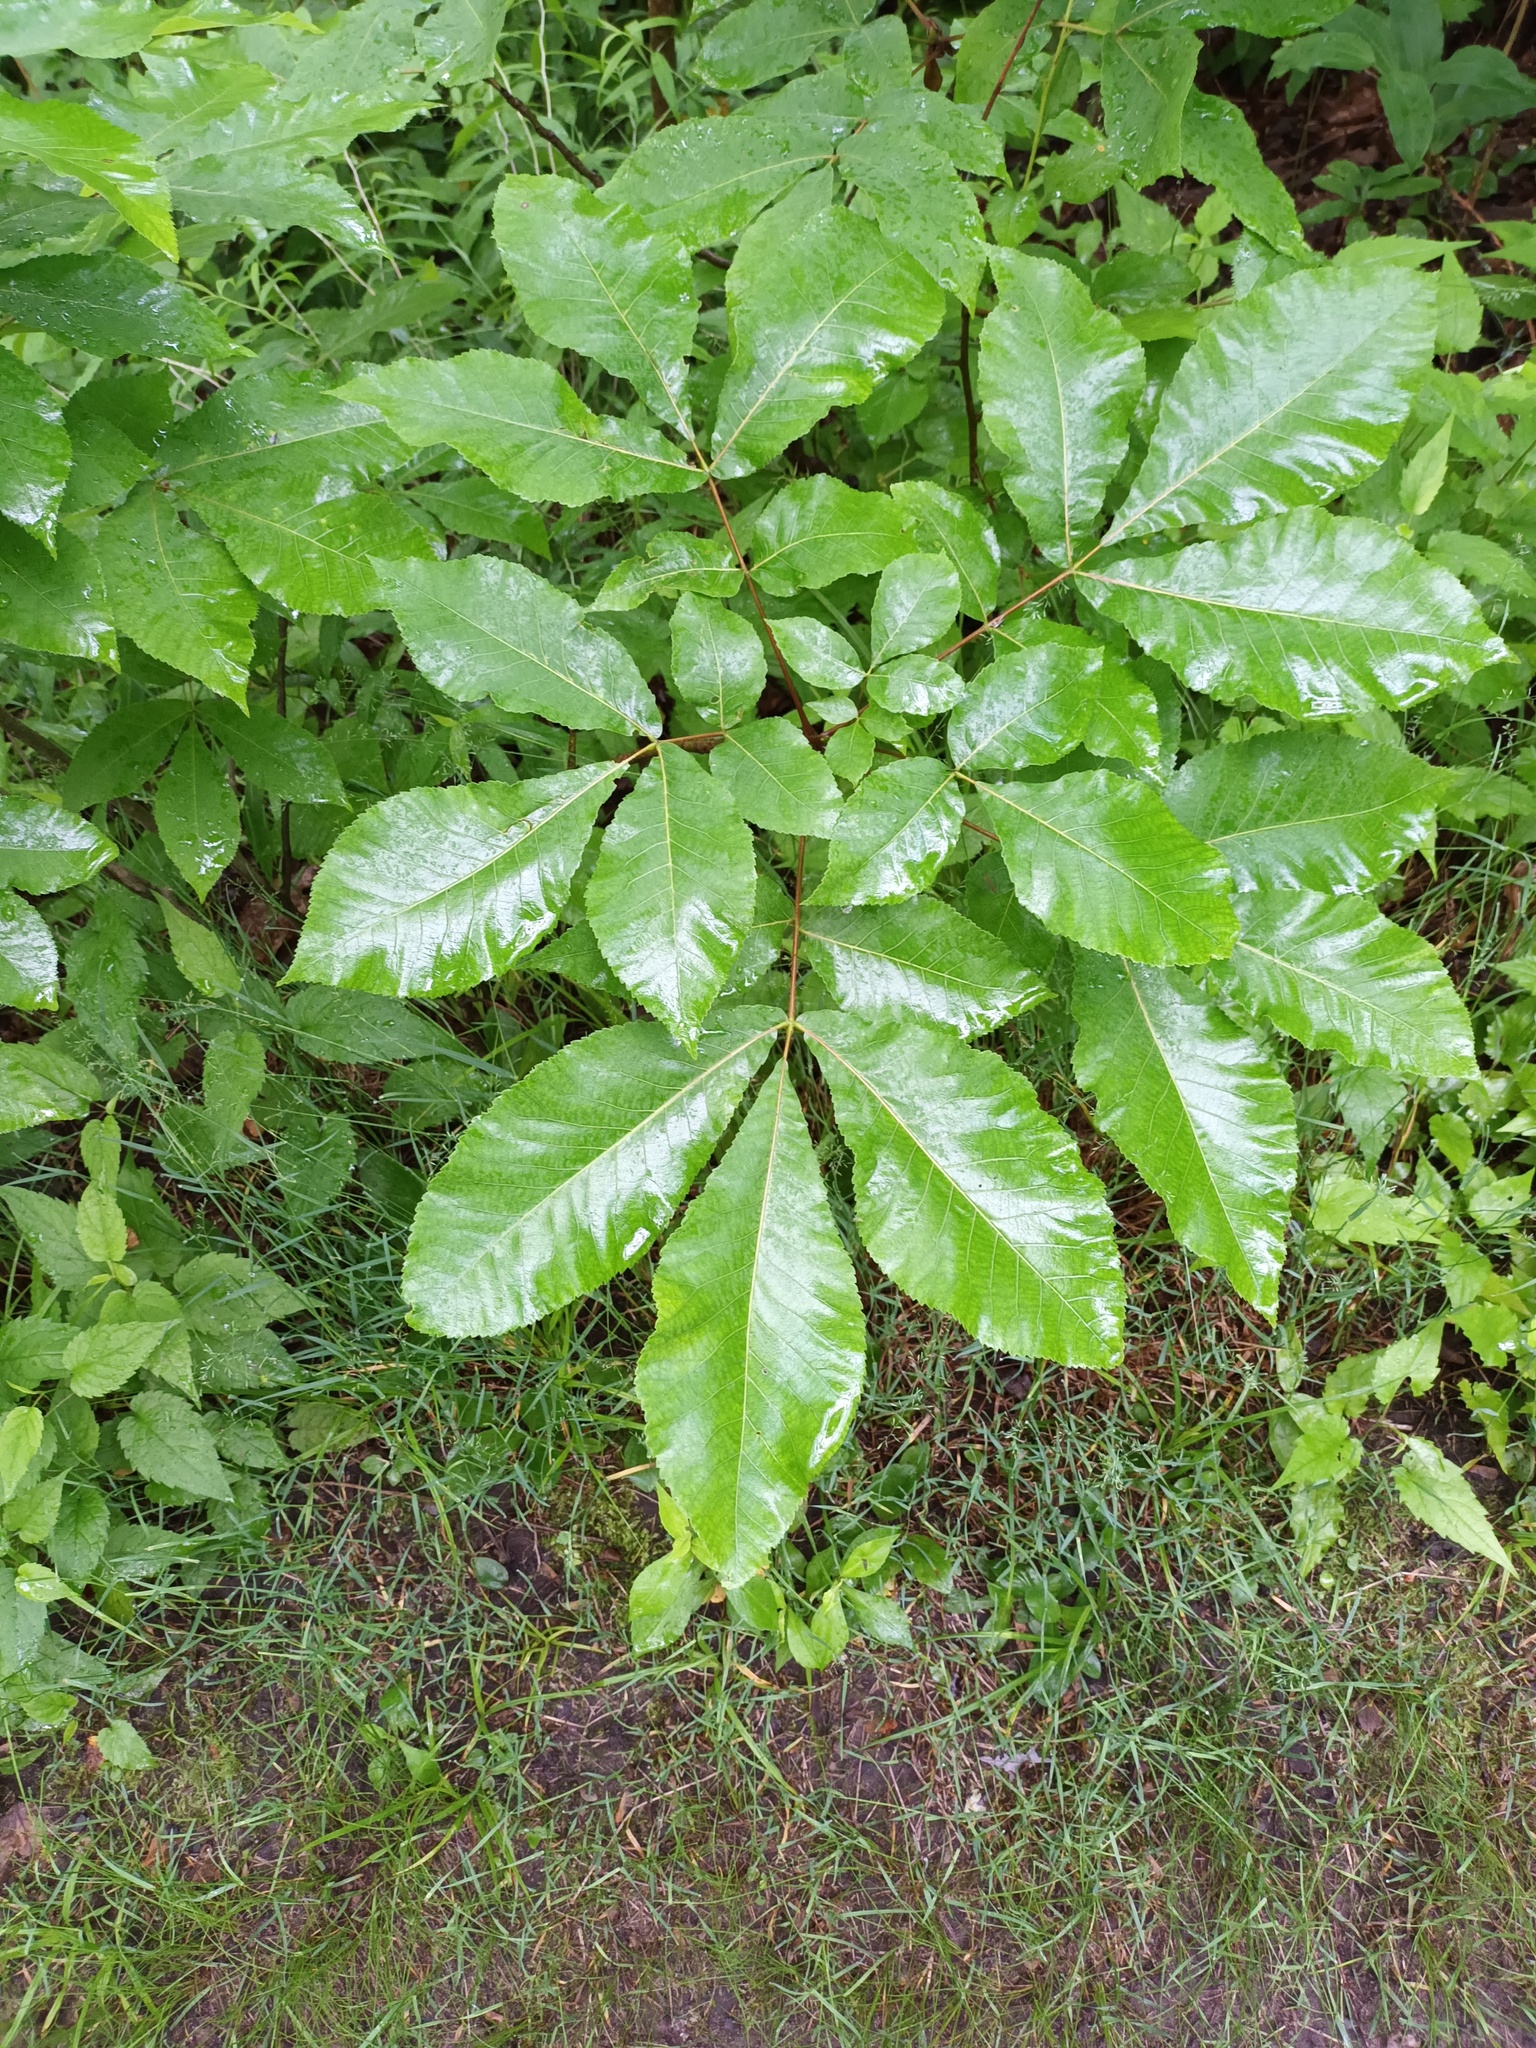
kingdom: Plantae
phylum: Tracheophyta
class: Magnoliopsida
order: Fagales
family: Juglandaceae
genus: Carya
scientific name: Carya
